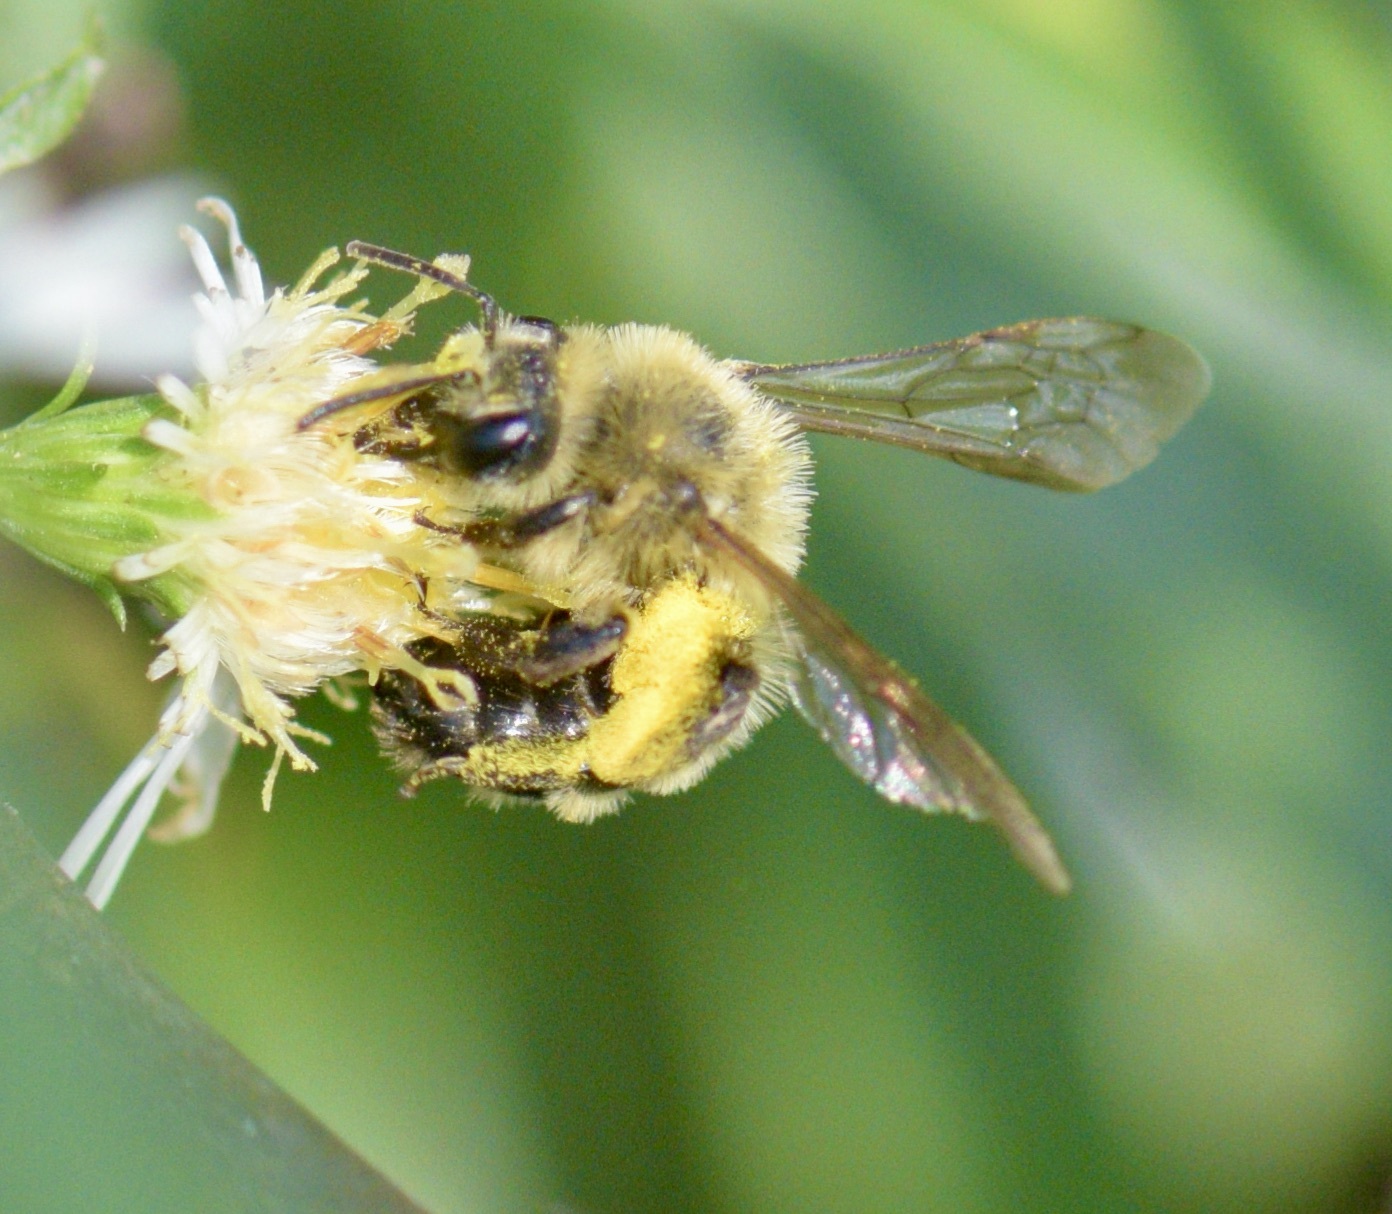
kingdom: Animalia
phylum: Arthropoda
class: Insecta
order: Hymenoptera
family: Andrenidae
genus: Andrena
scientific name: Andrena hirticincta
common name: Hairy-banded mining bee
